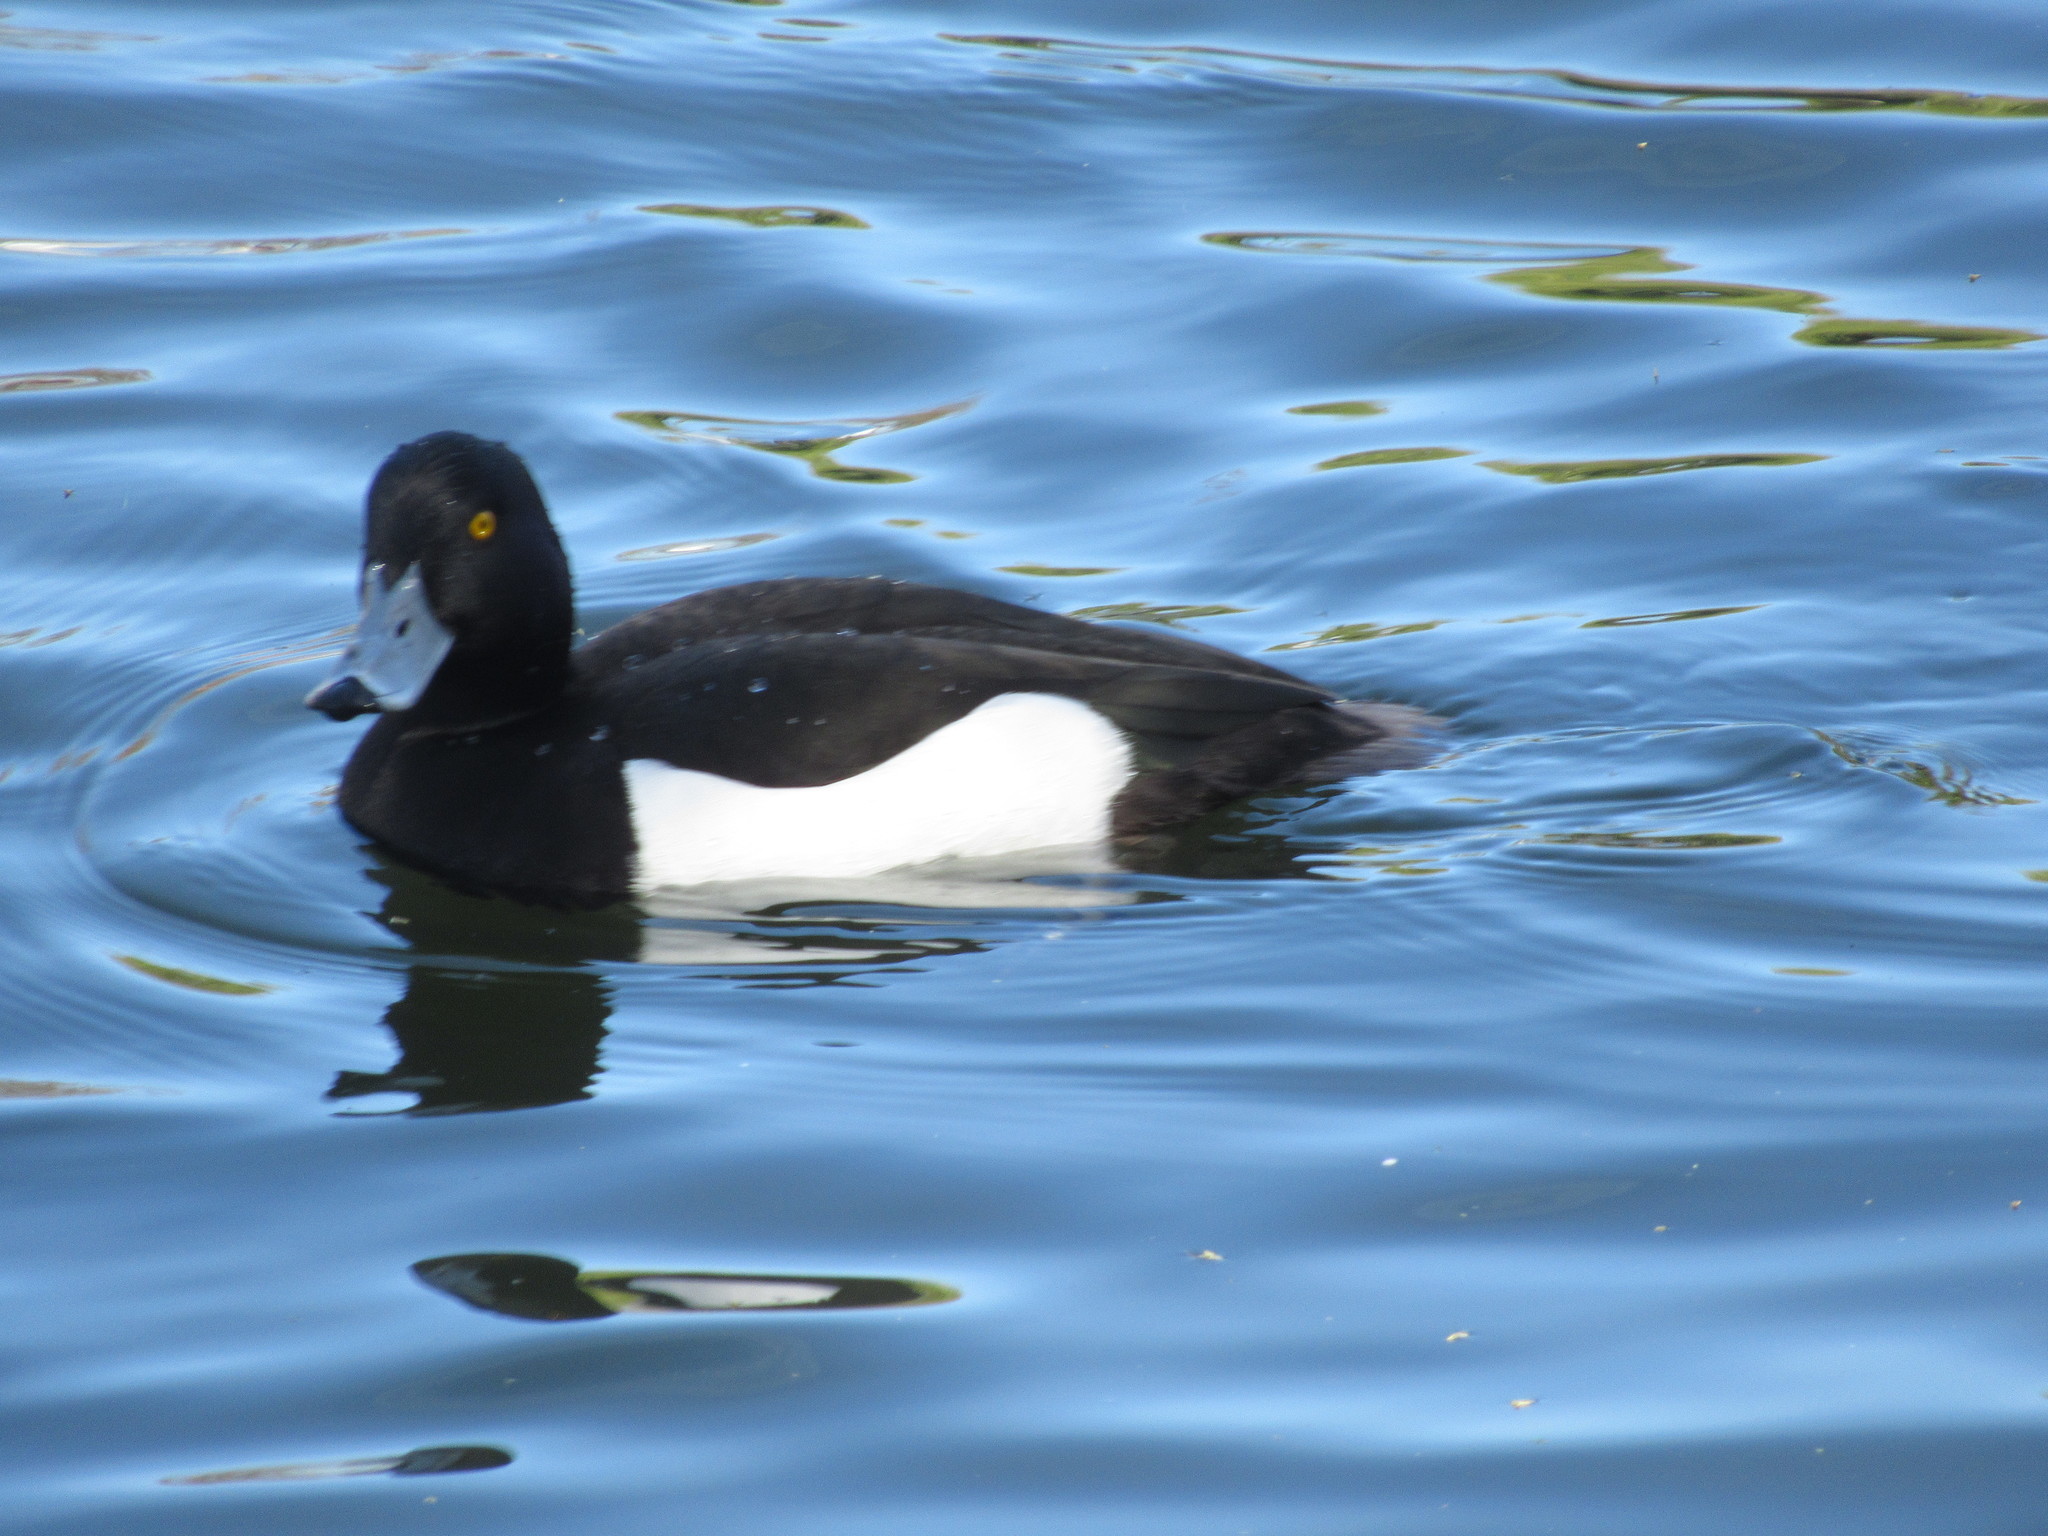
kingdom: Animalia
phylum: Chordata
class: Aves
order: Anseriformes
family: Anatidae
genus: Aythya
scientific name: Aythya fuligula
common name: Tufted duck
